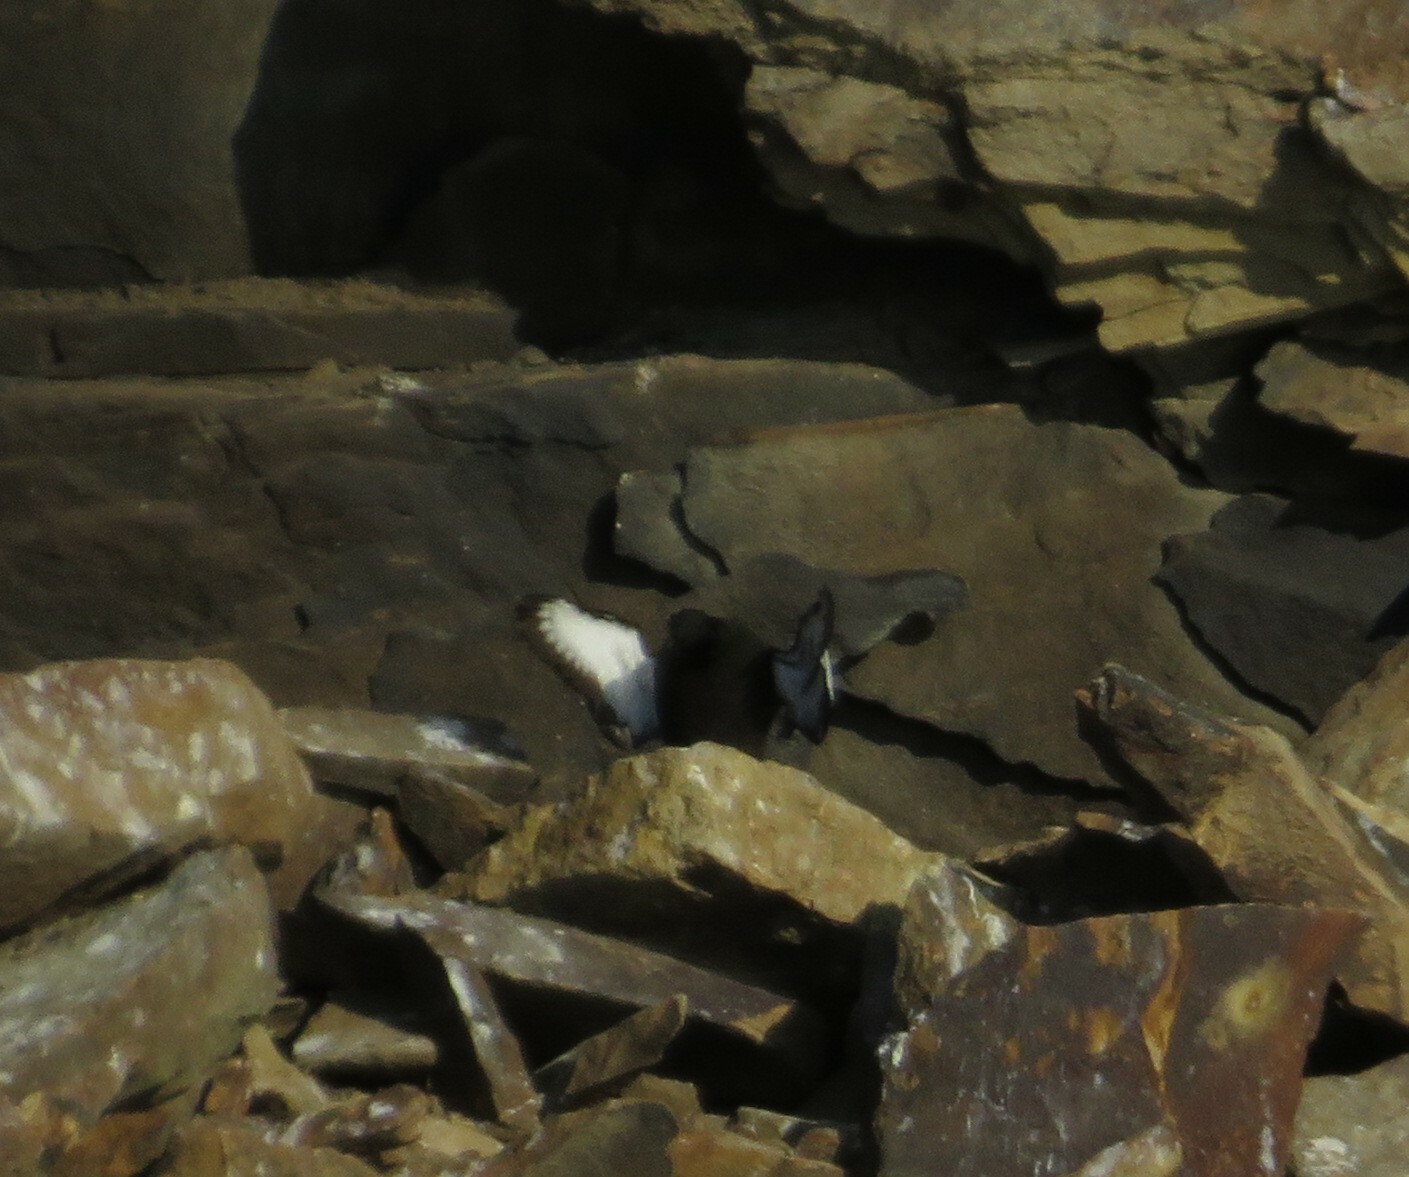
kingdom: Animalia
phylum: Chordata
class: Aves
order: Charadriiformes
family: Alcidae
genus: Cepphus
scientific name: Cepphus grylle
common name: Black guillemot
